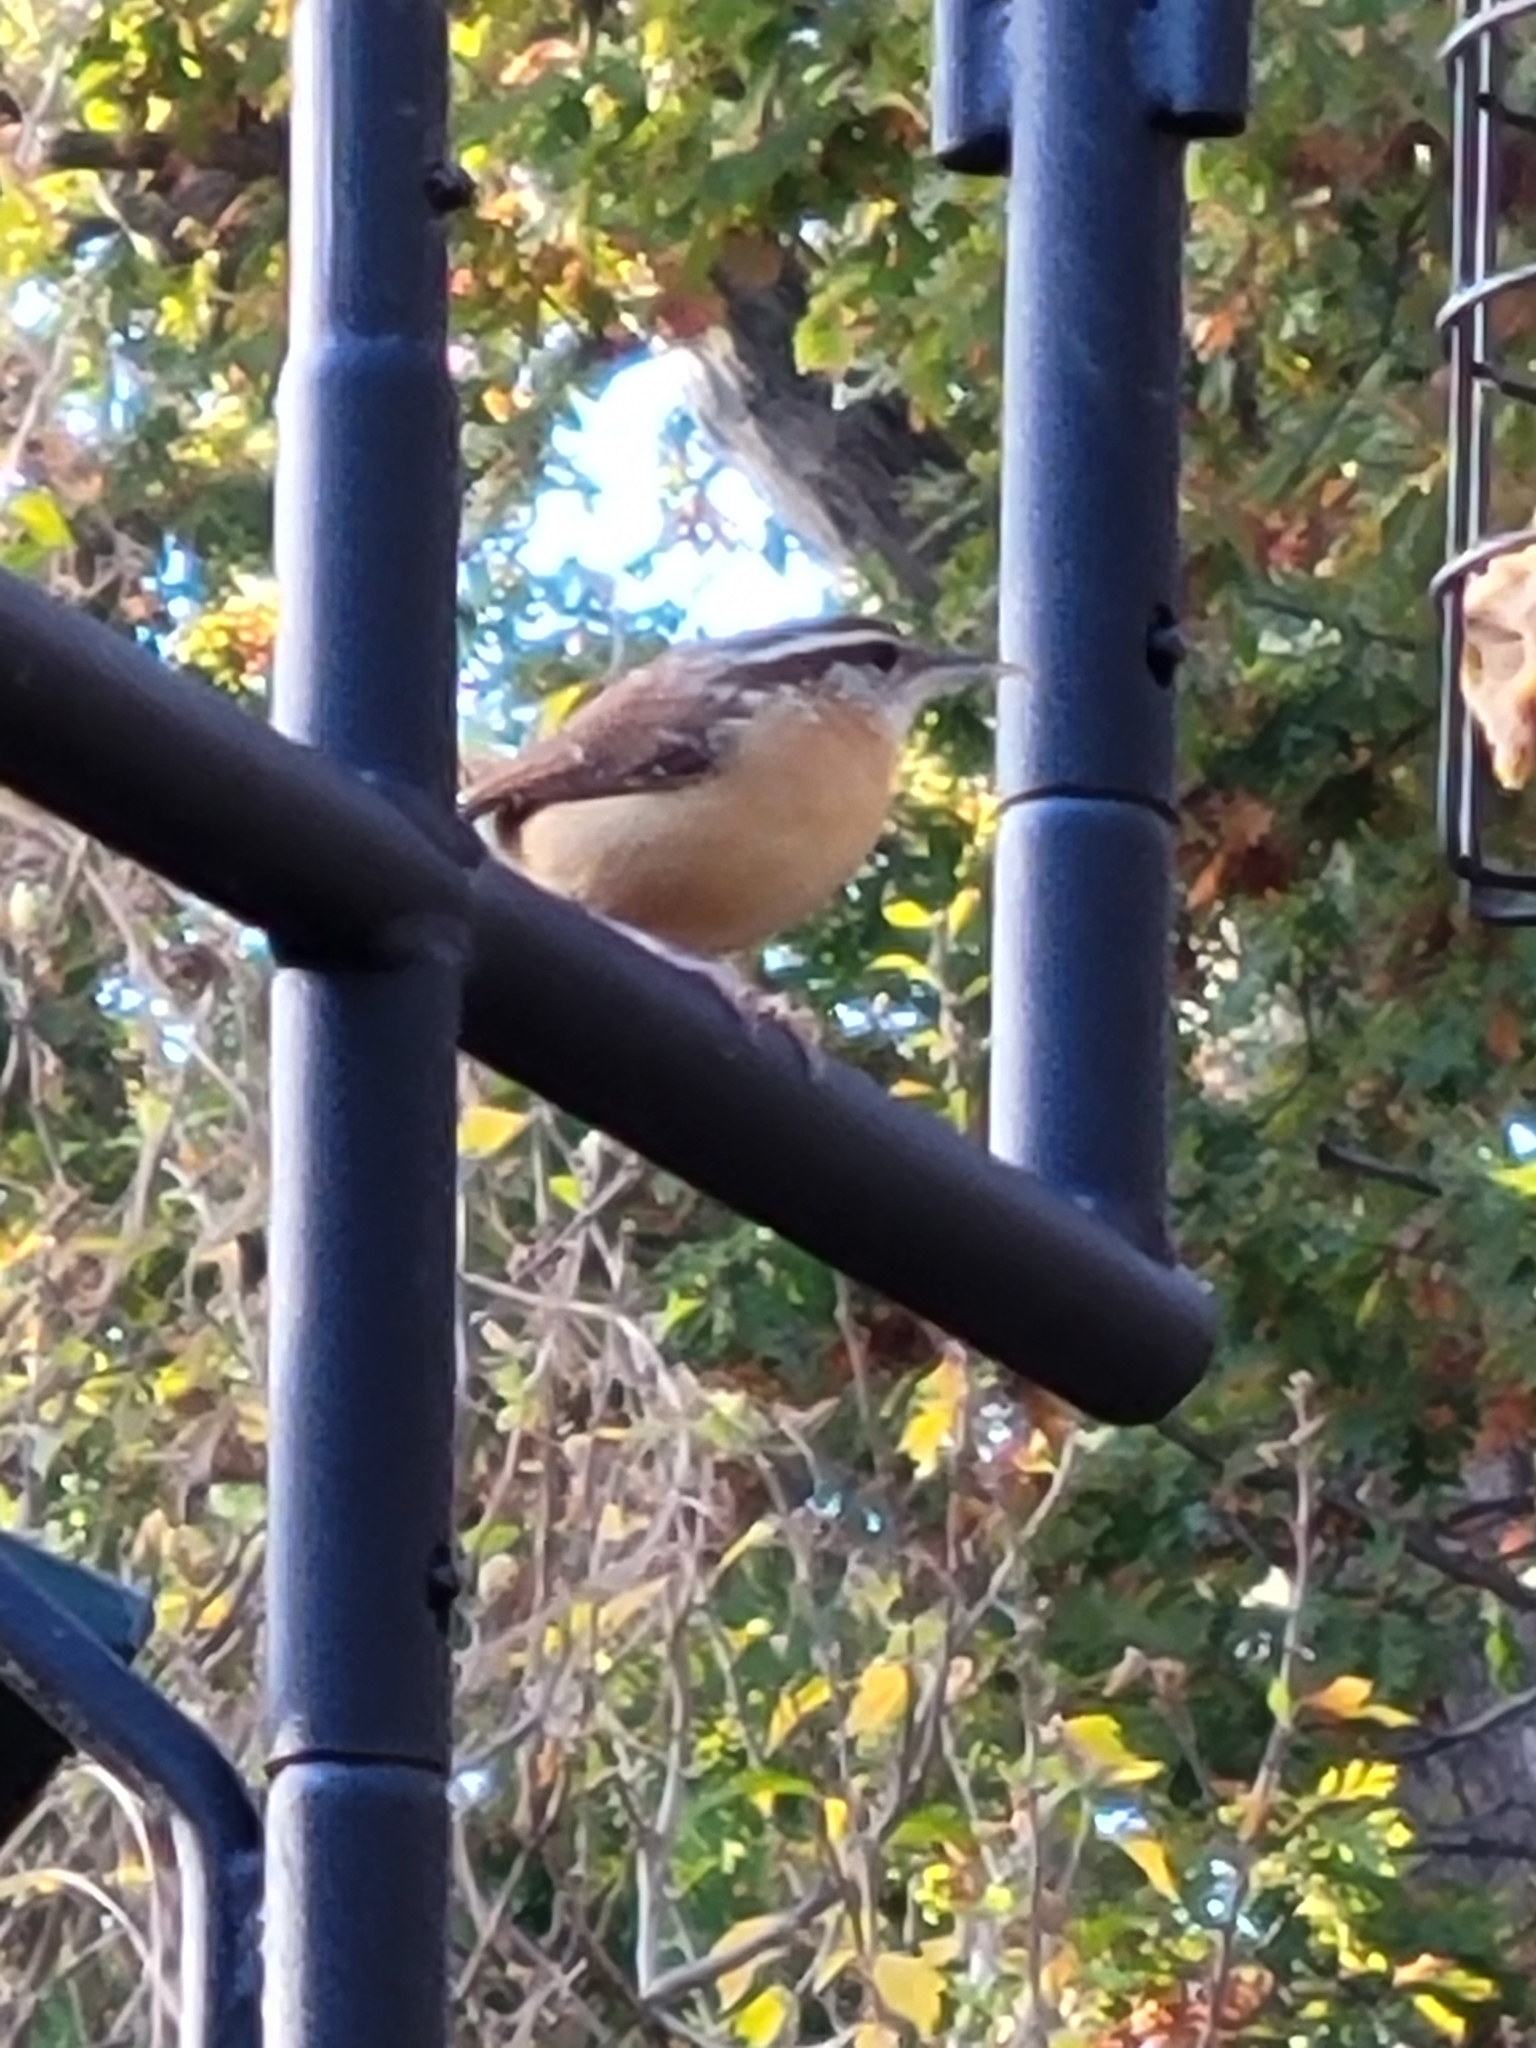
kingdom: Animalia
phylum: Chordata
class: Aves
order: Passeriformes
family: Troglodytidae
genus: Thryothorus
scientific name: Thryothorus ludovicianus
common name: Carolina wren
